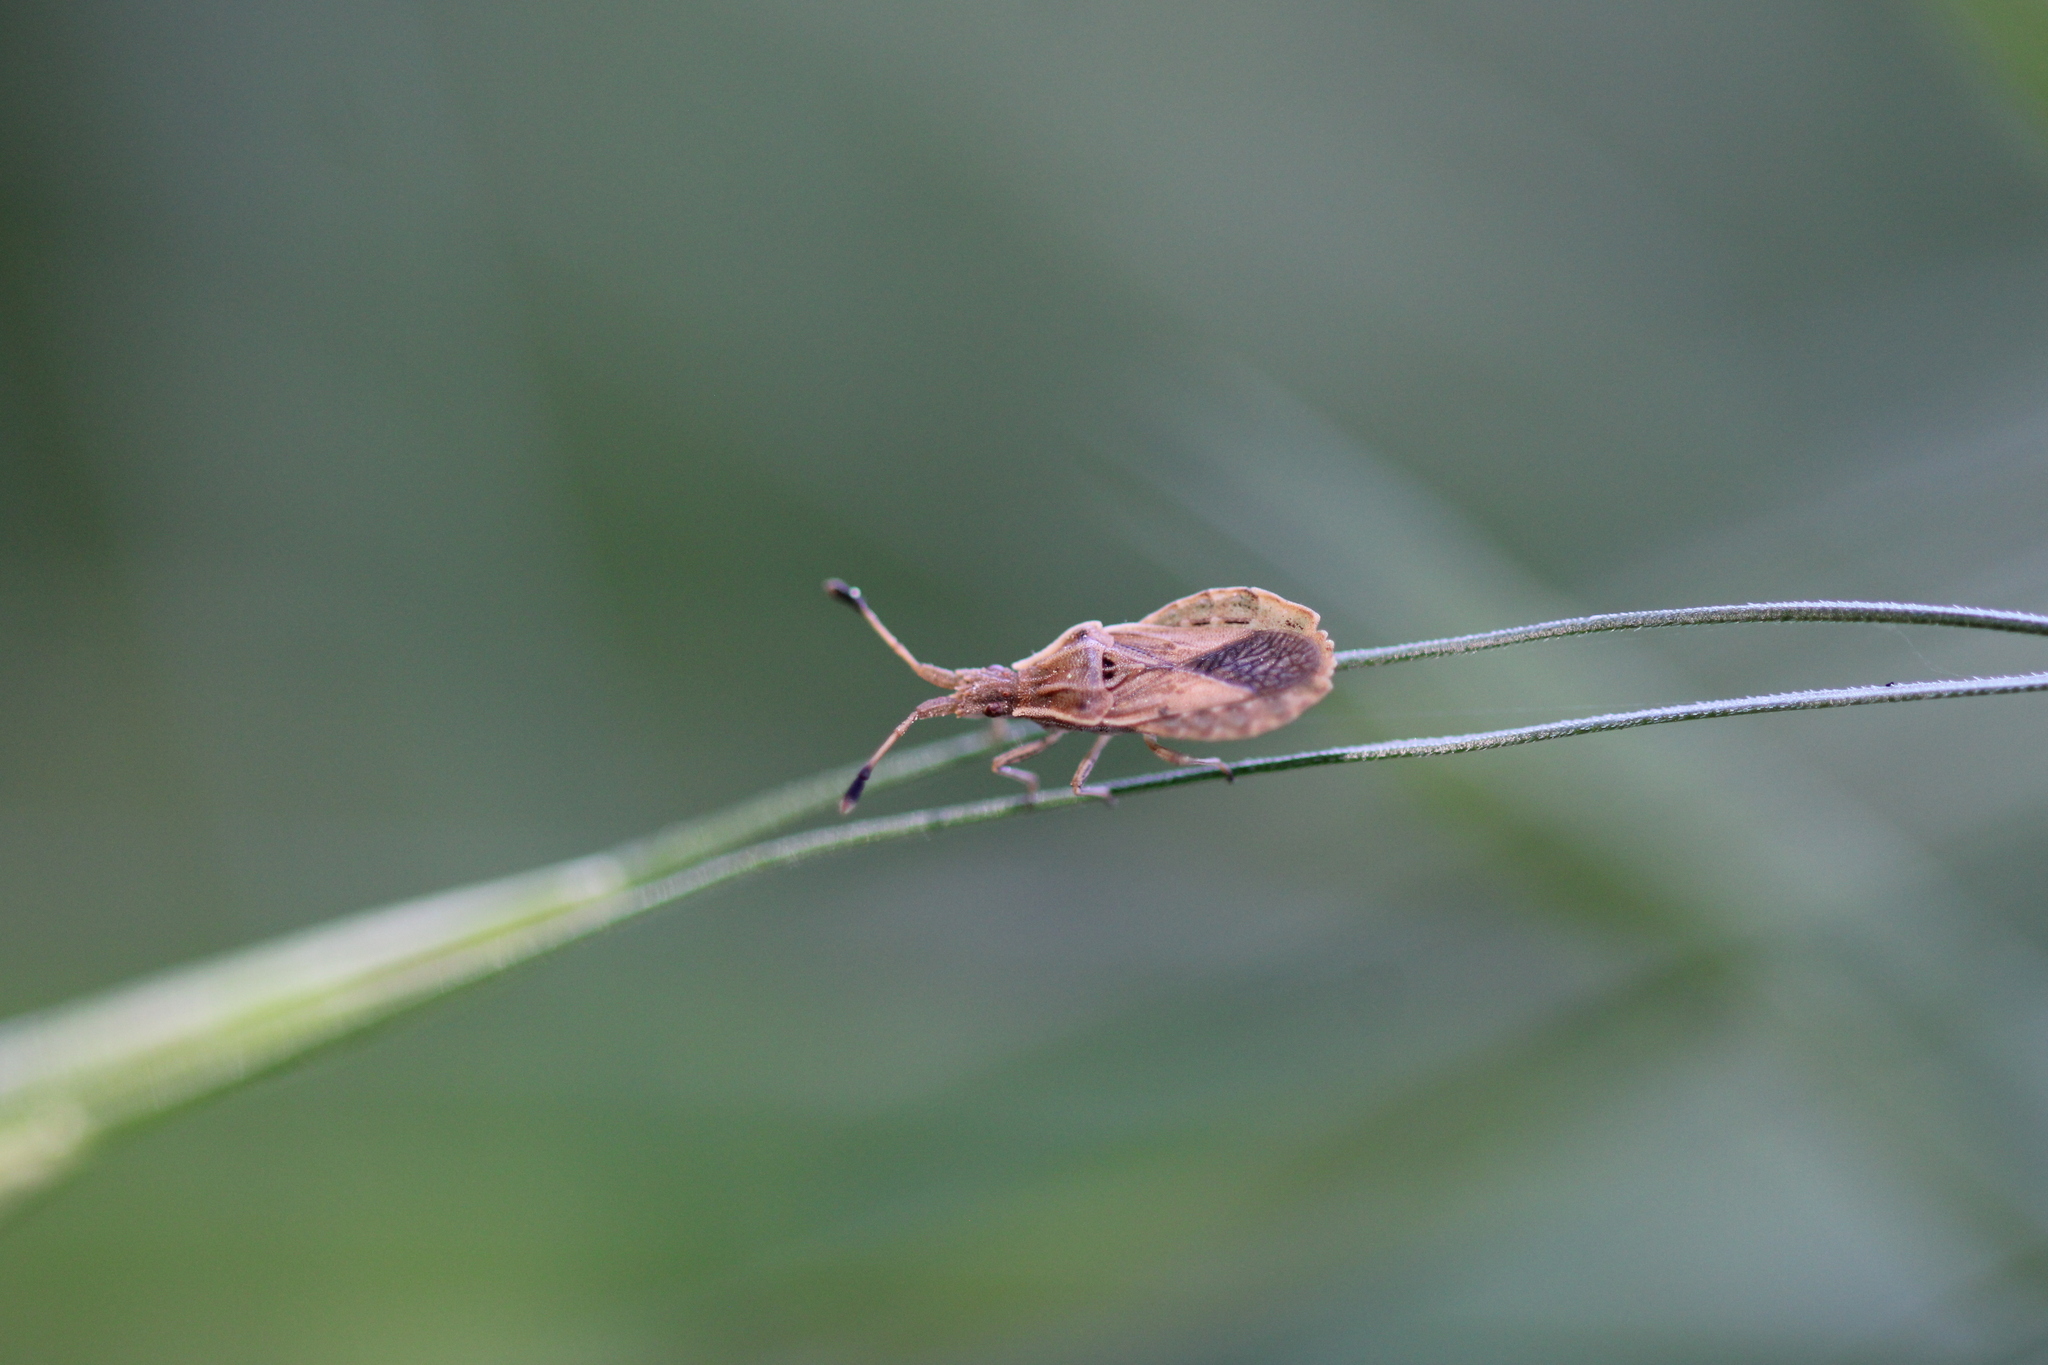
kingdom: Animalia
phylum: Arthropoda
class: Insecta
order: Hemiptera
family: Coreidae
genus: Spathocera
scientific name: Spathocera lobata
